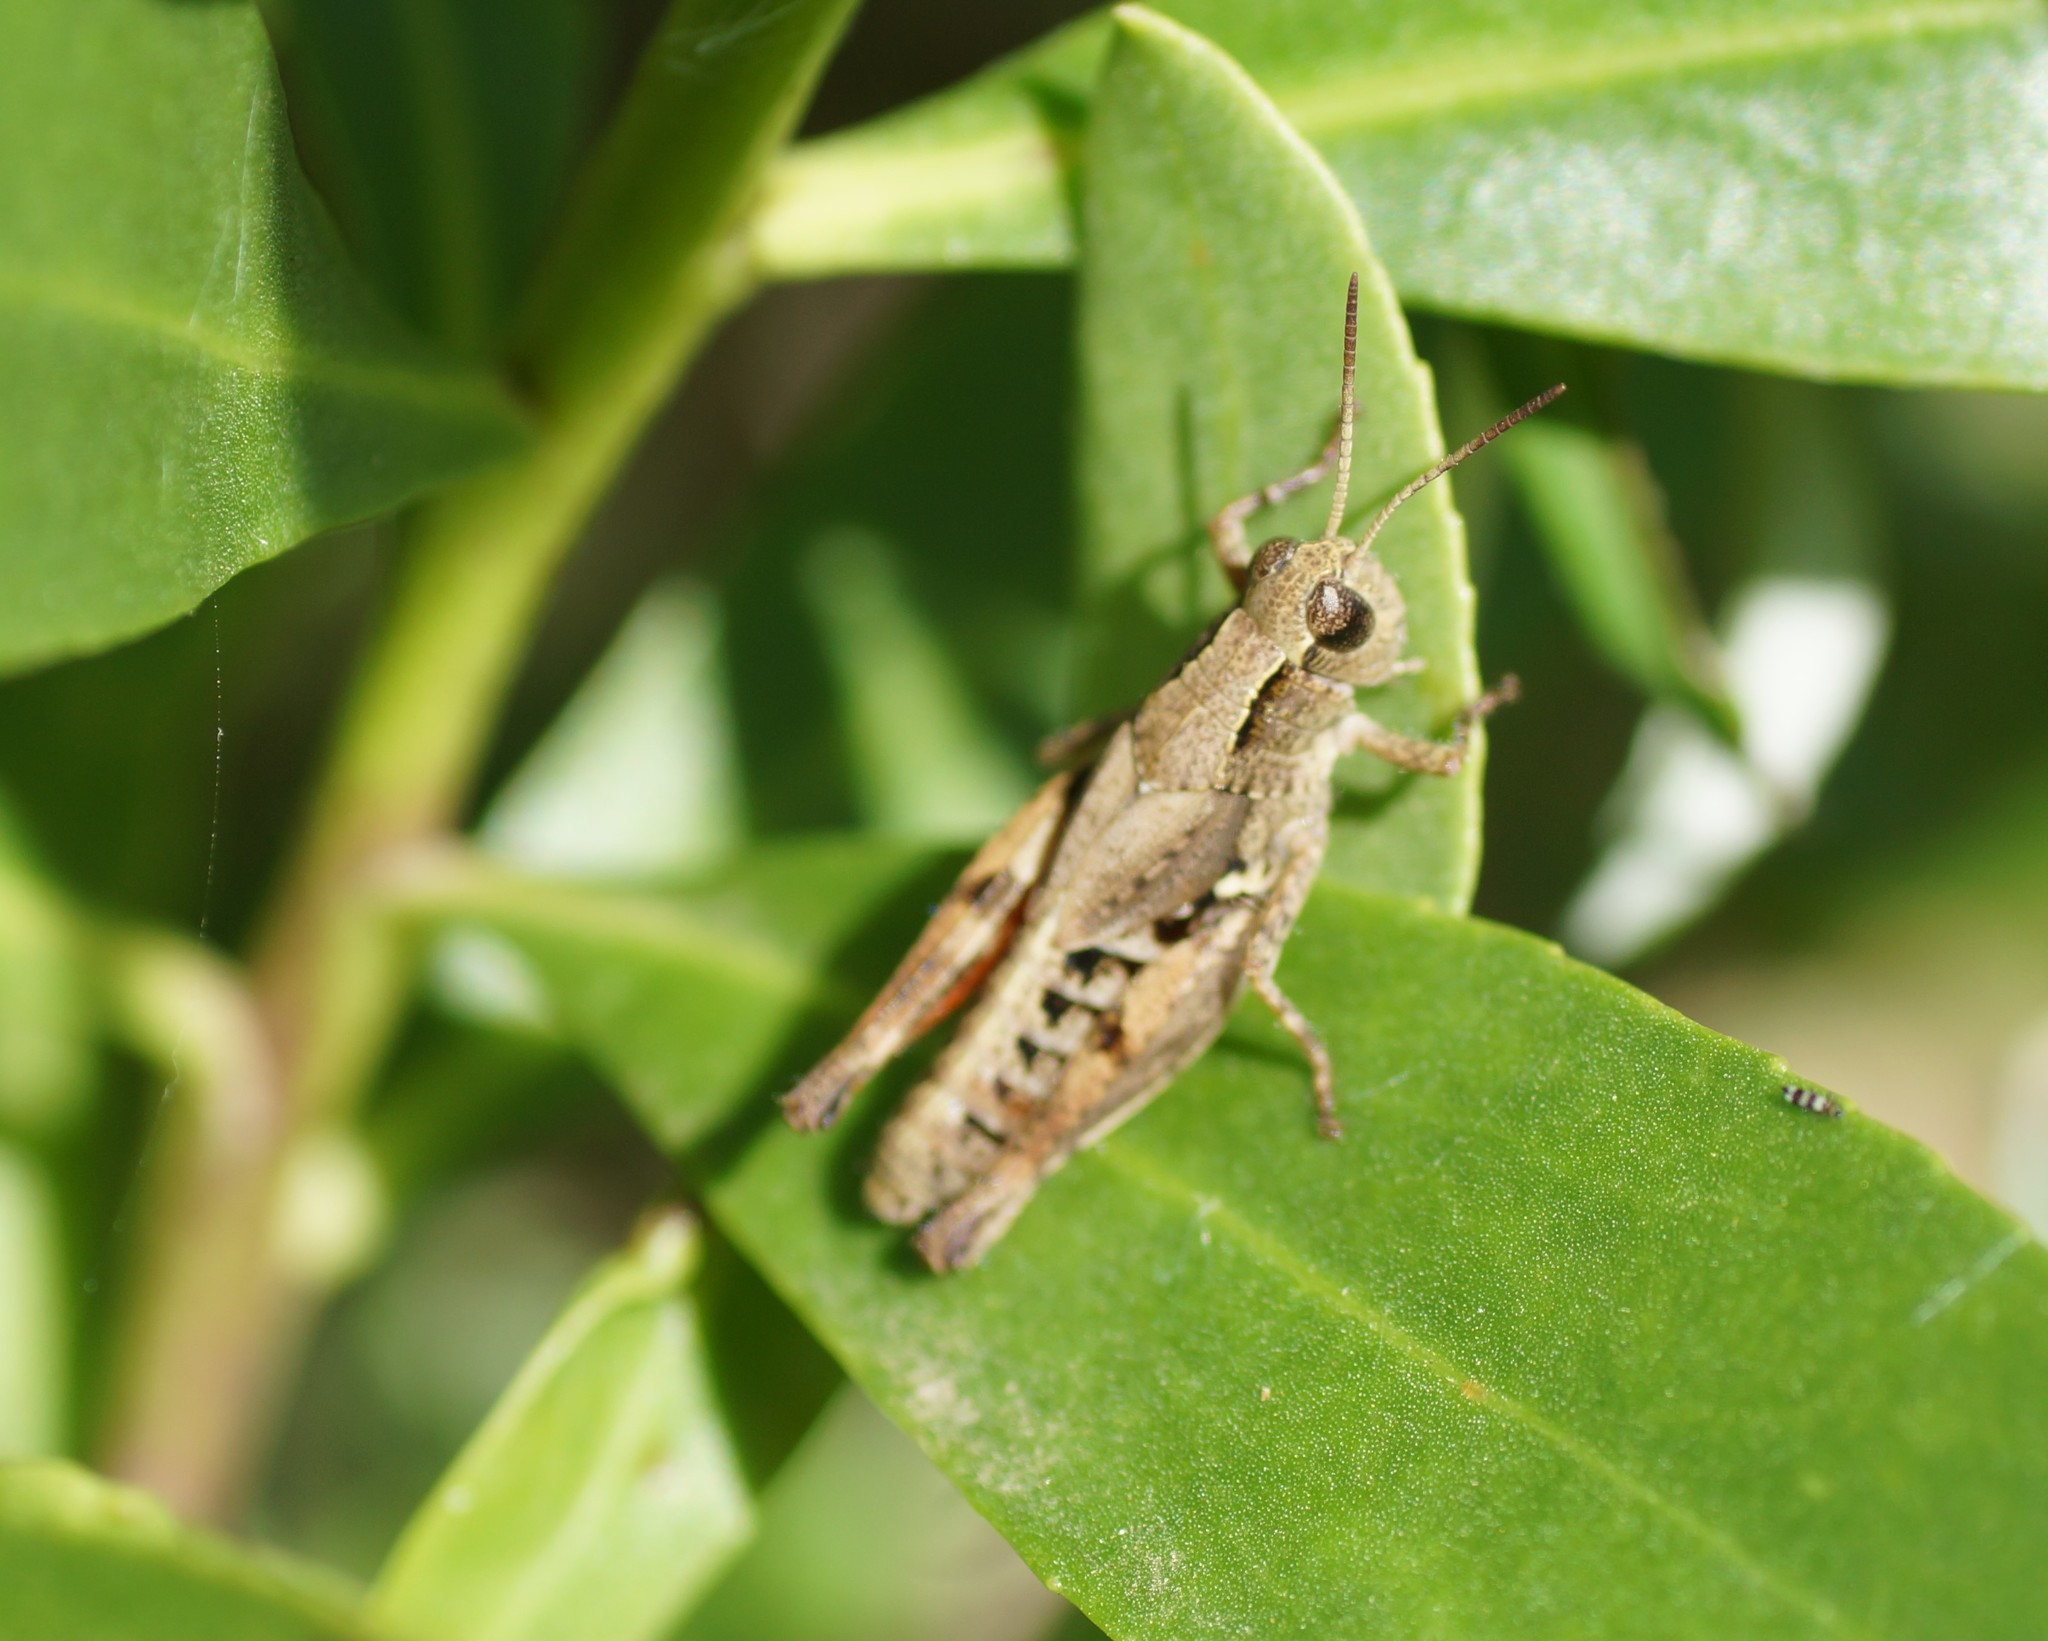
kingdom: Animalia
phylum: Arthropoda
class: Insecta
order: Orthoptera
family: Acrididae
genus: Phaulacridium
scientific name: Phaulacridium vittatum
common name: Wingless grasshopper
